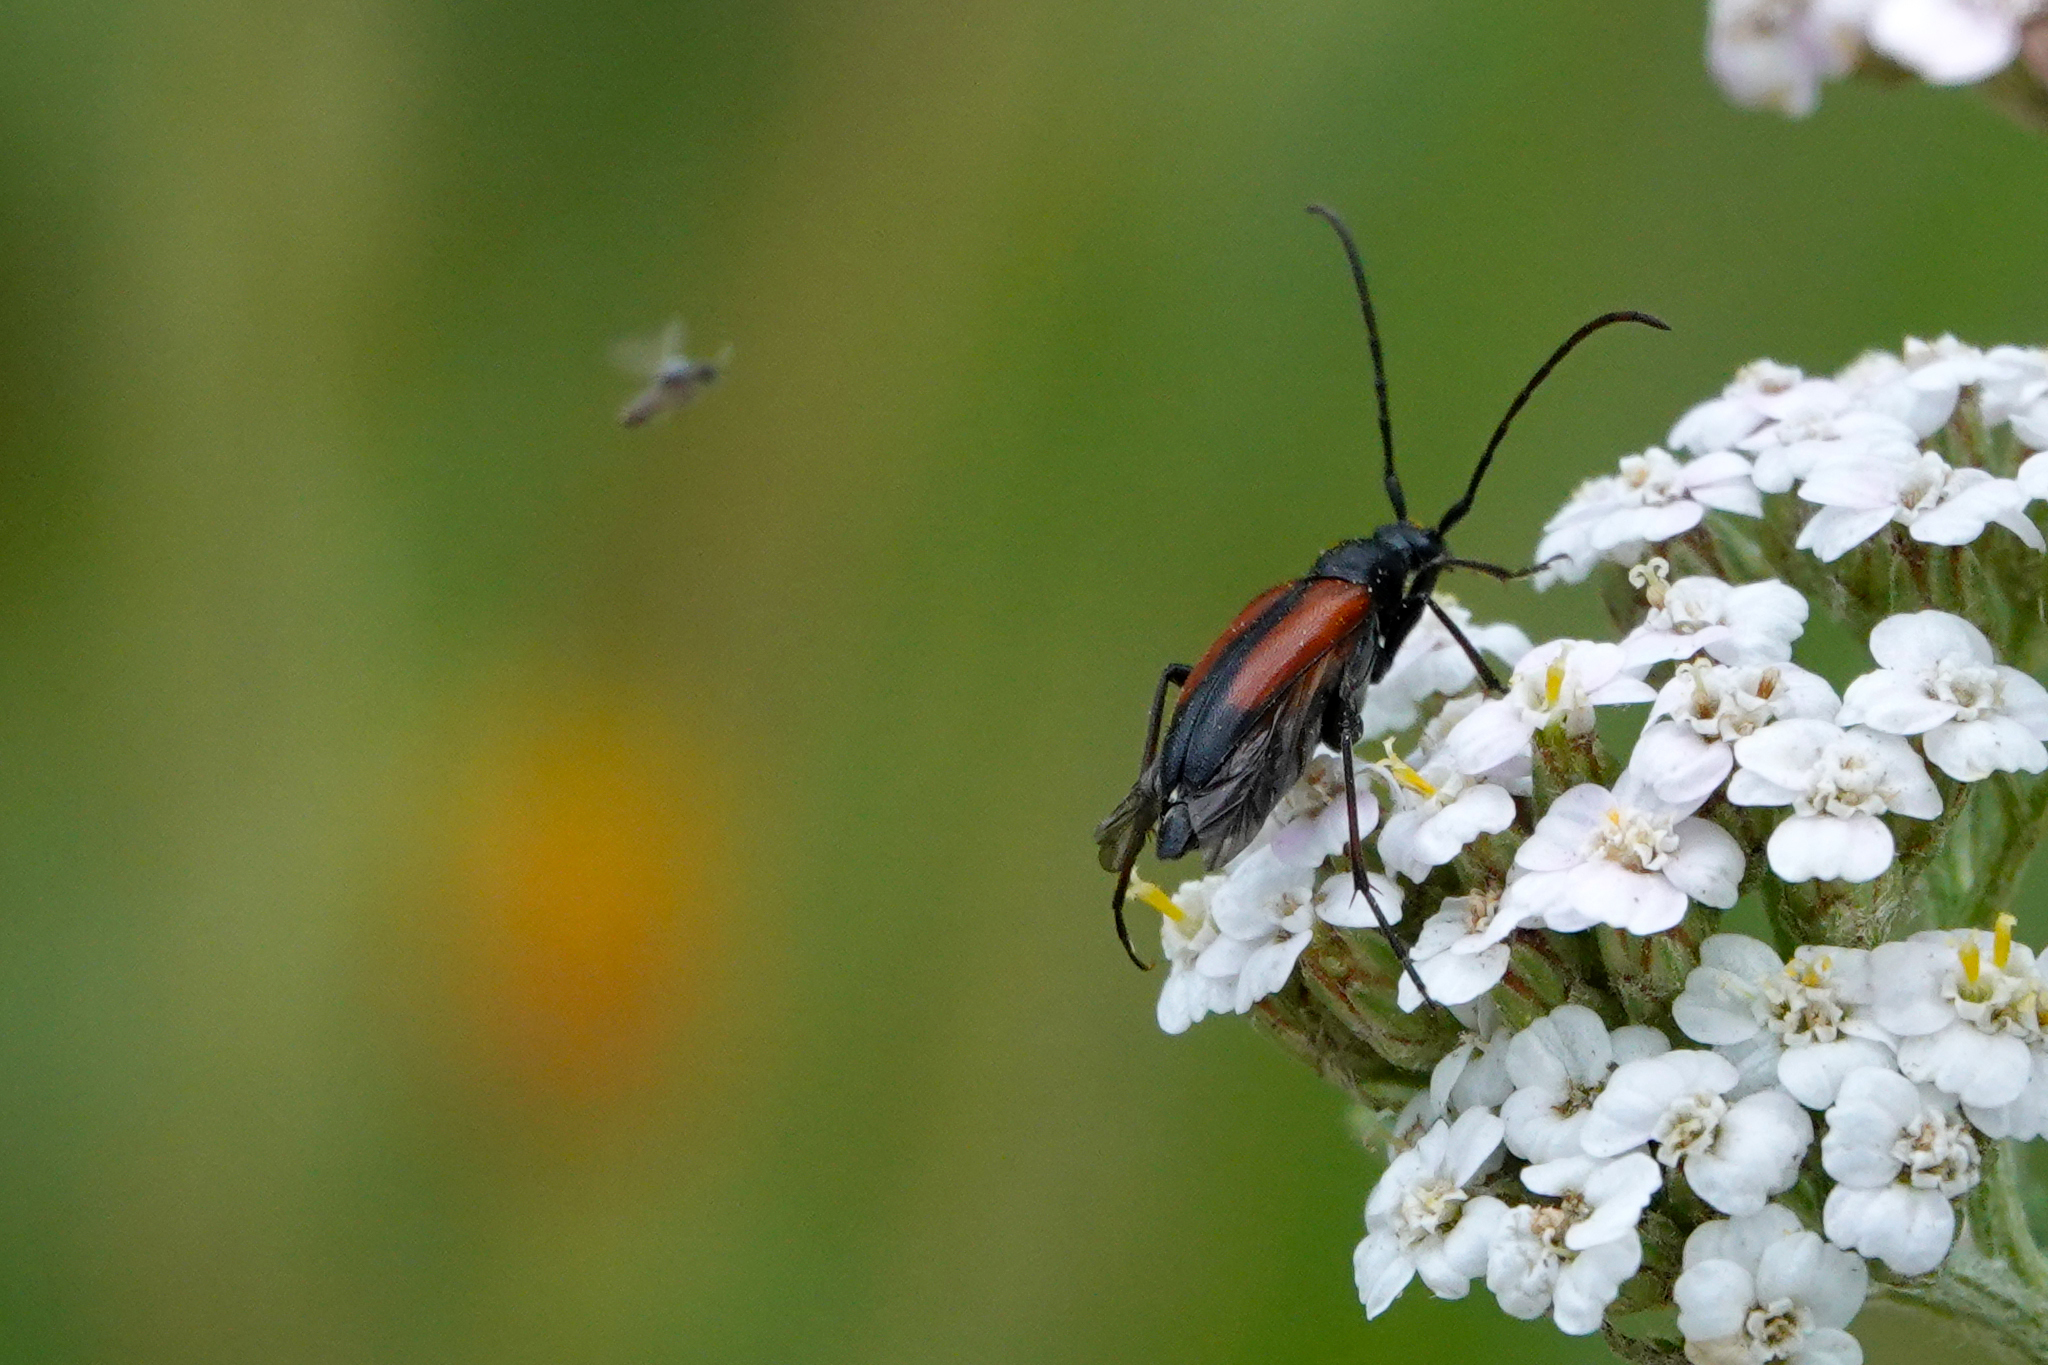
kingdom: Animalia
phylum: Arthropoda
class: Insecta
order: Coleoptera
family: Cerambycidae
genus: Stenurella
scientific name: Stenurella melanura
